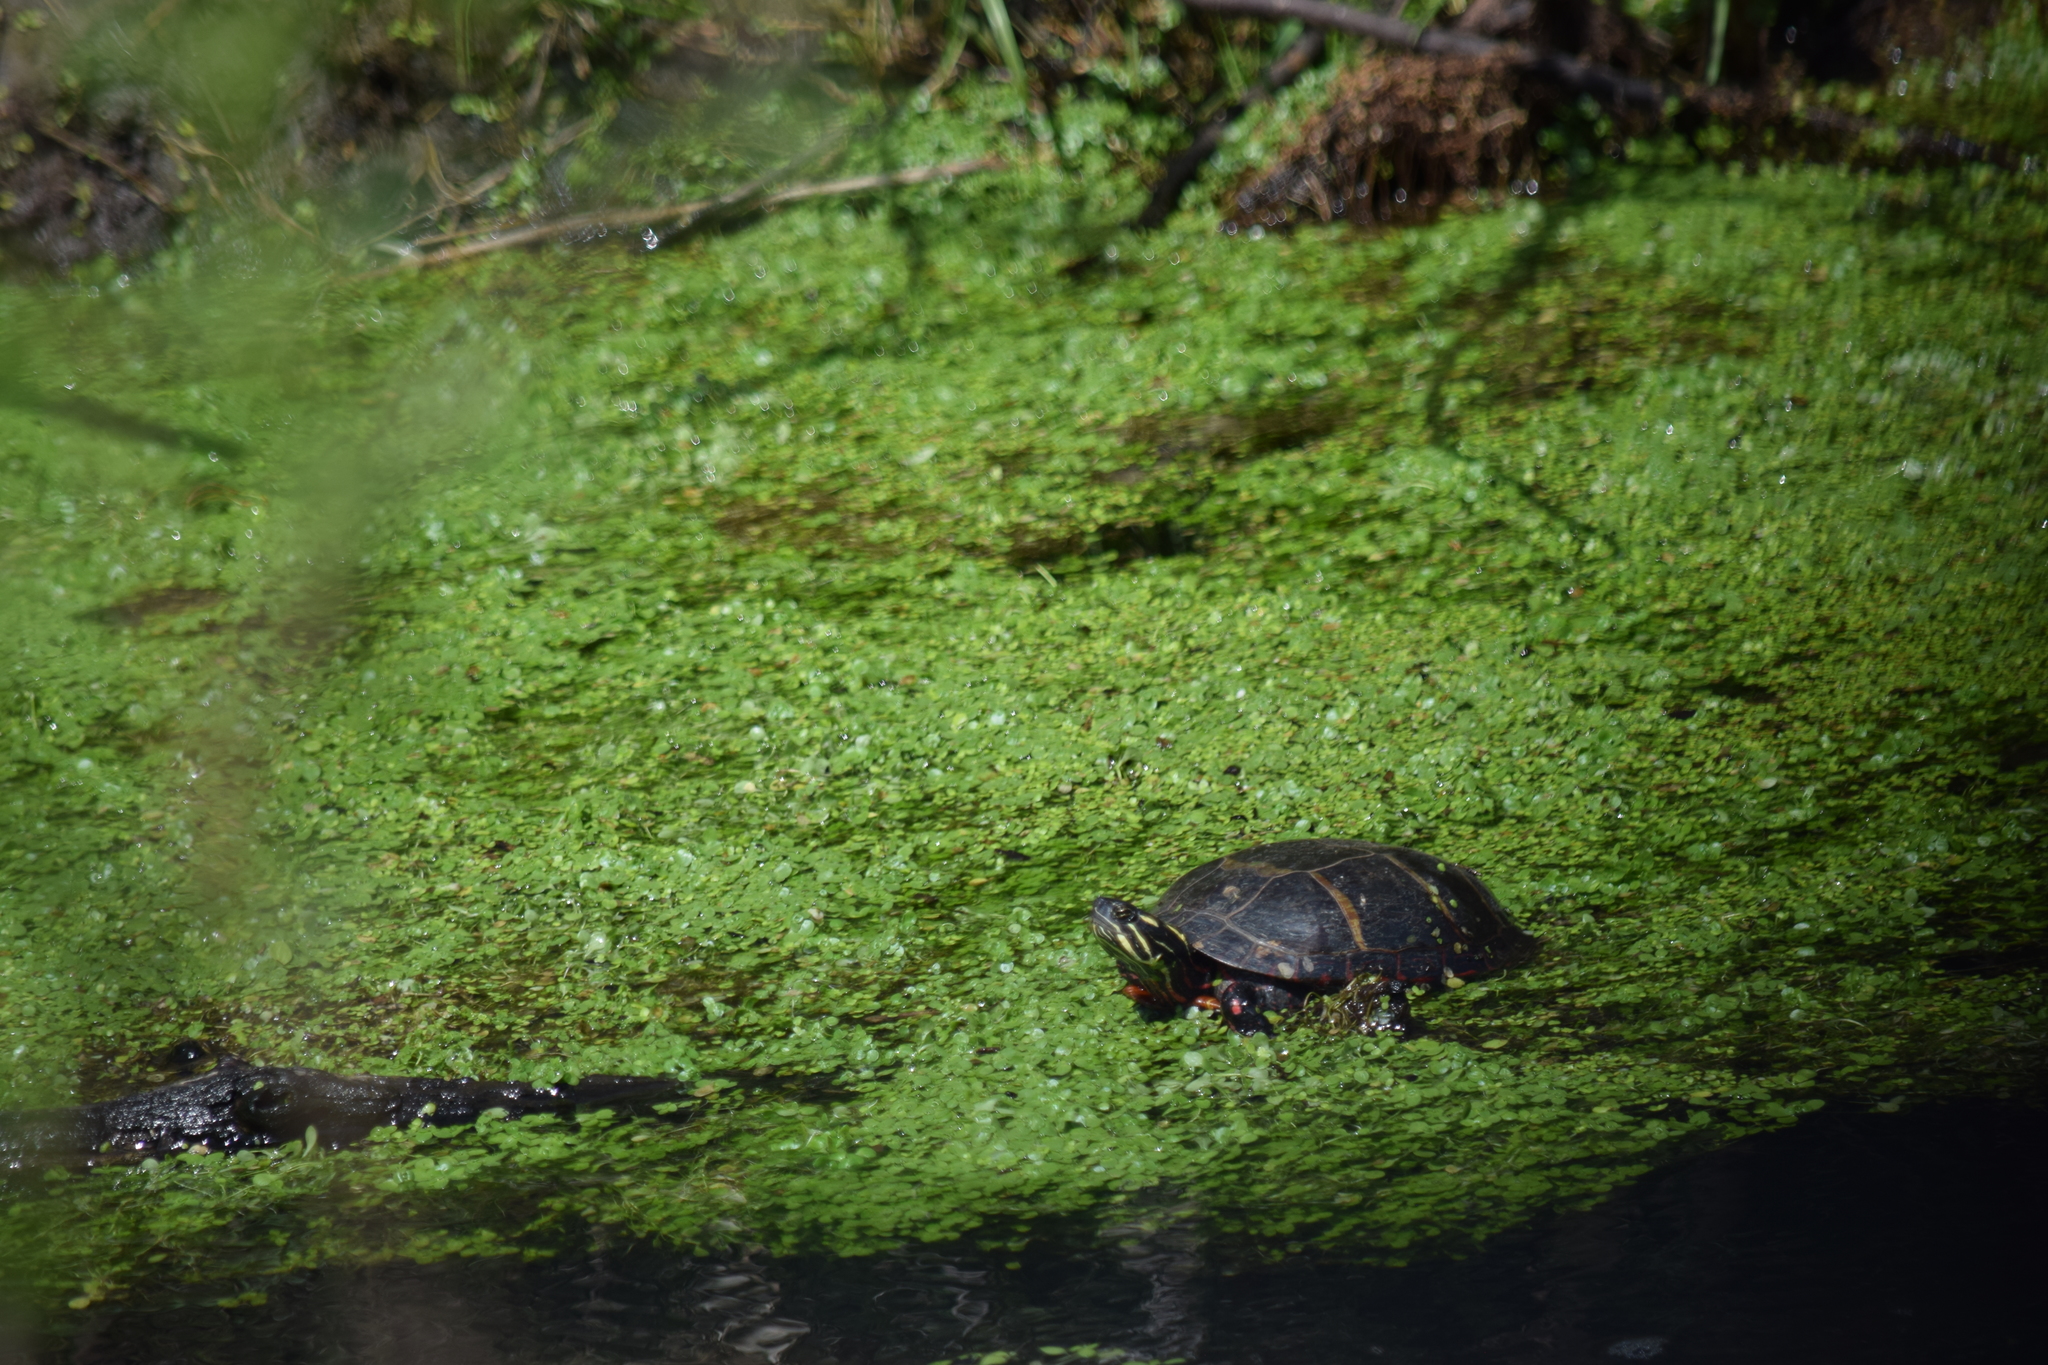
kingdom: Animalia
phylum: Chordata
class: Testudines
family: Emydidae
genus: Chrysemys
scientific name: Chrysemys picta
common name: Painted turtle
